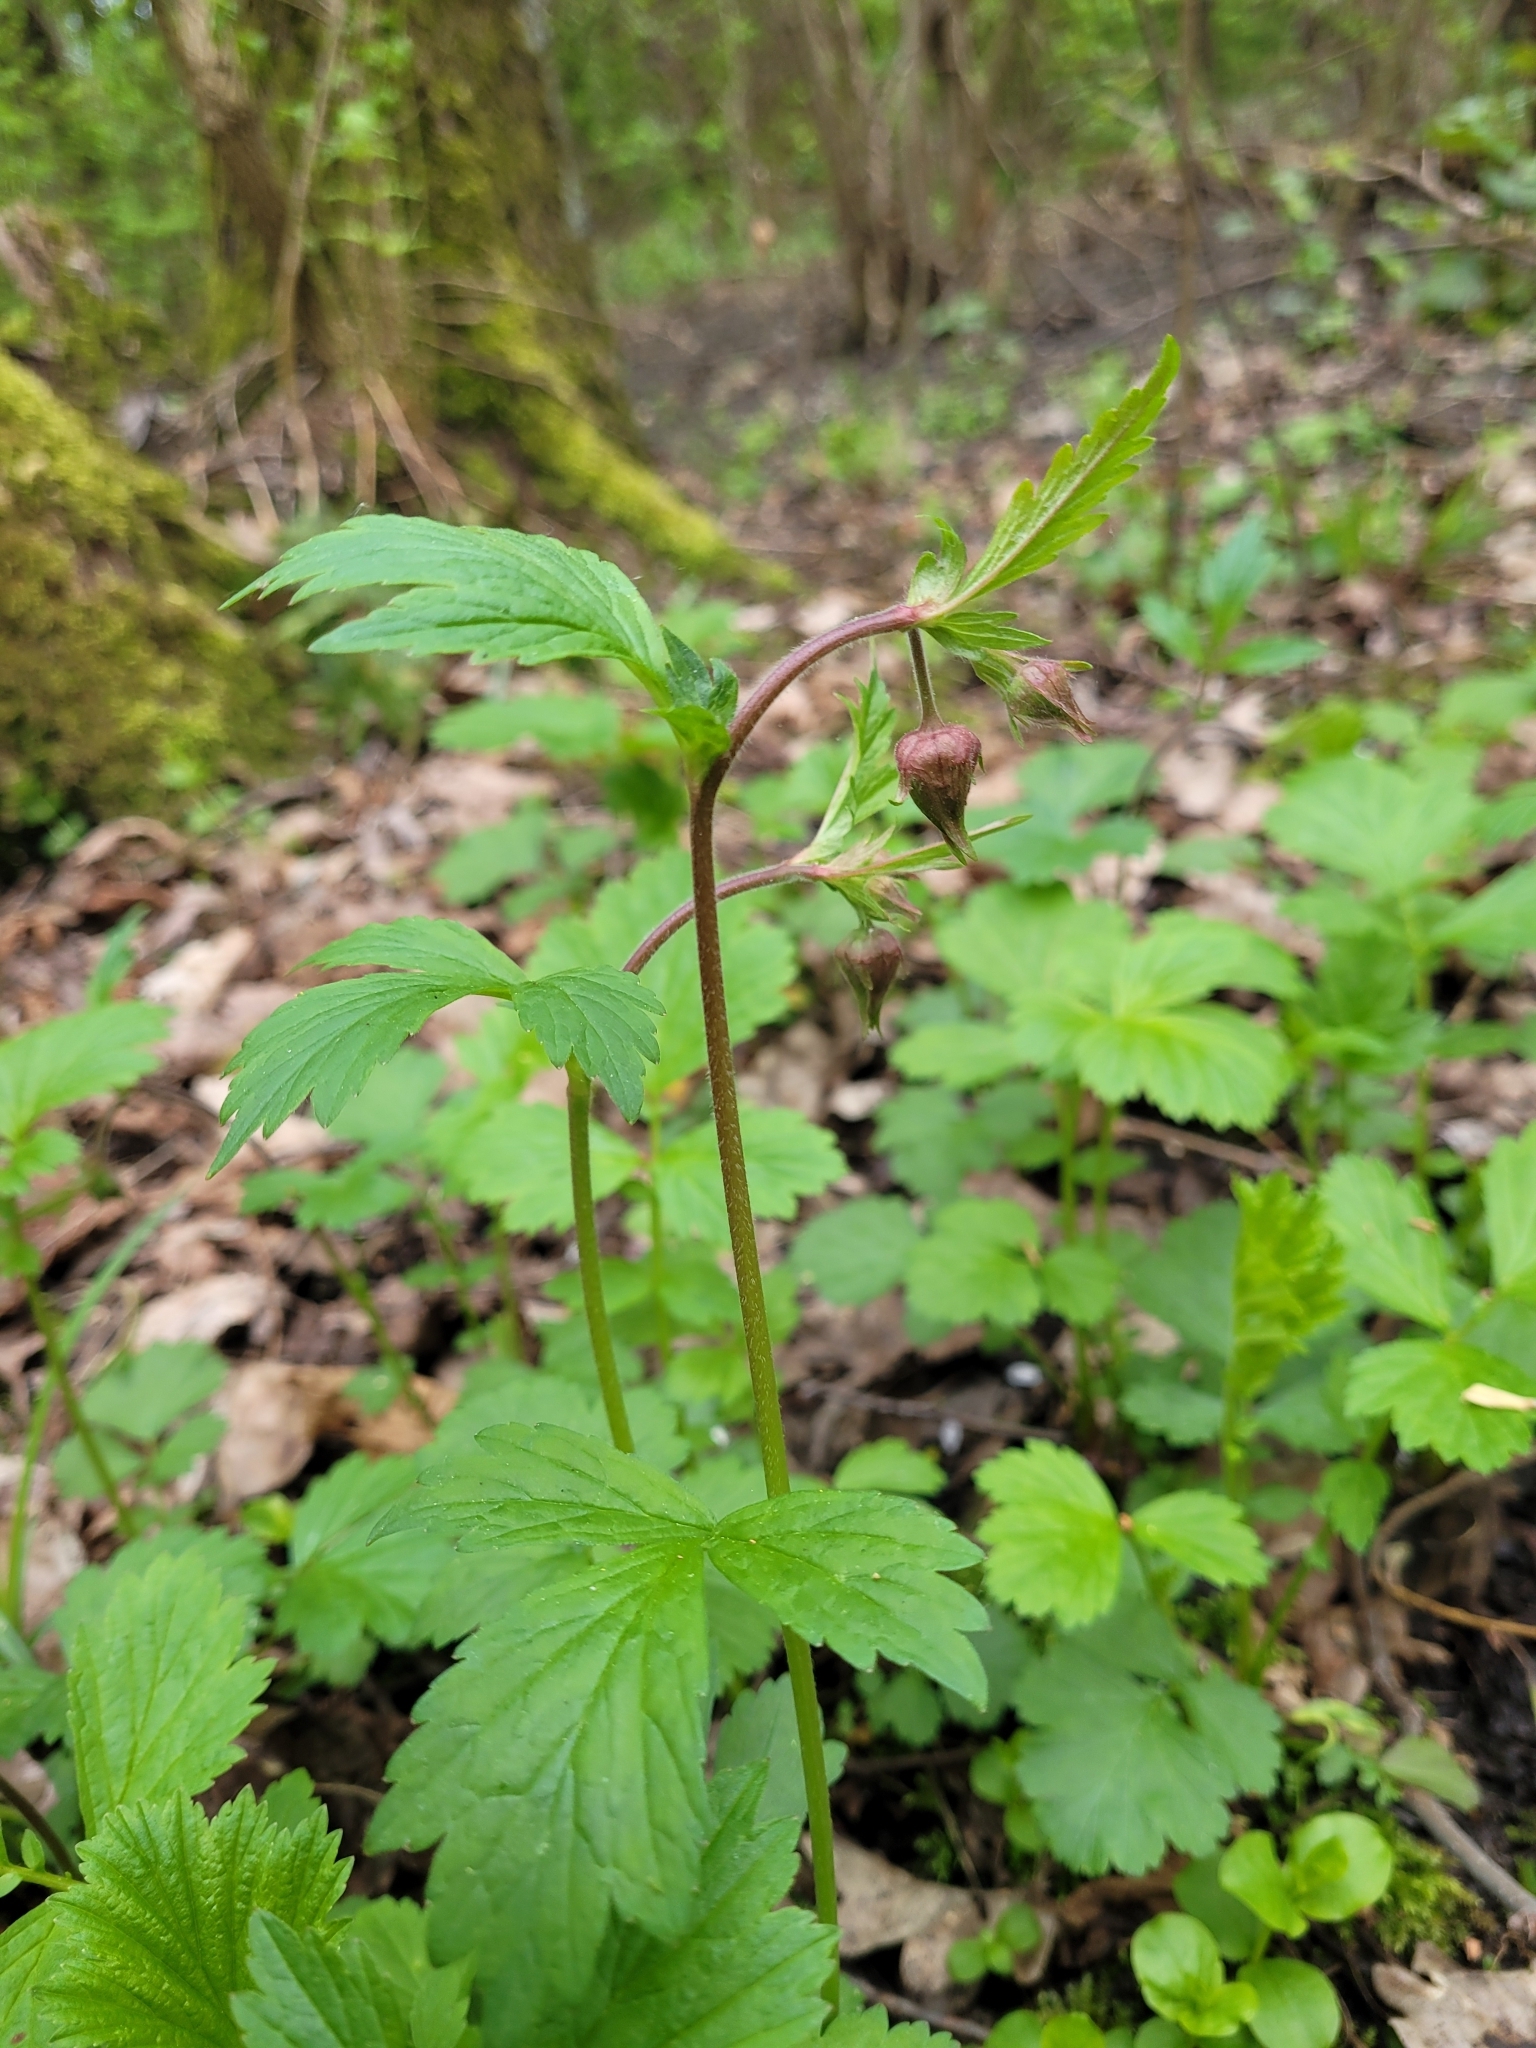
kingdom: Plantae
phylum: Tracheophyta
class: Magnoliopsida
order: Rosales
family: Rosaceae
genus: Geum
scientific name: Geum rivale
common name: Water avens
